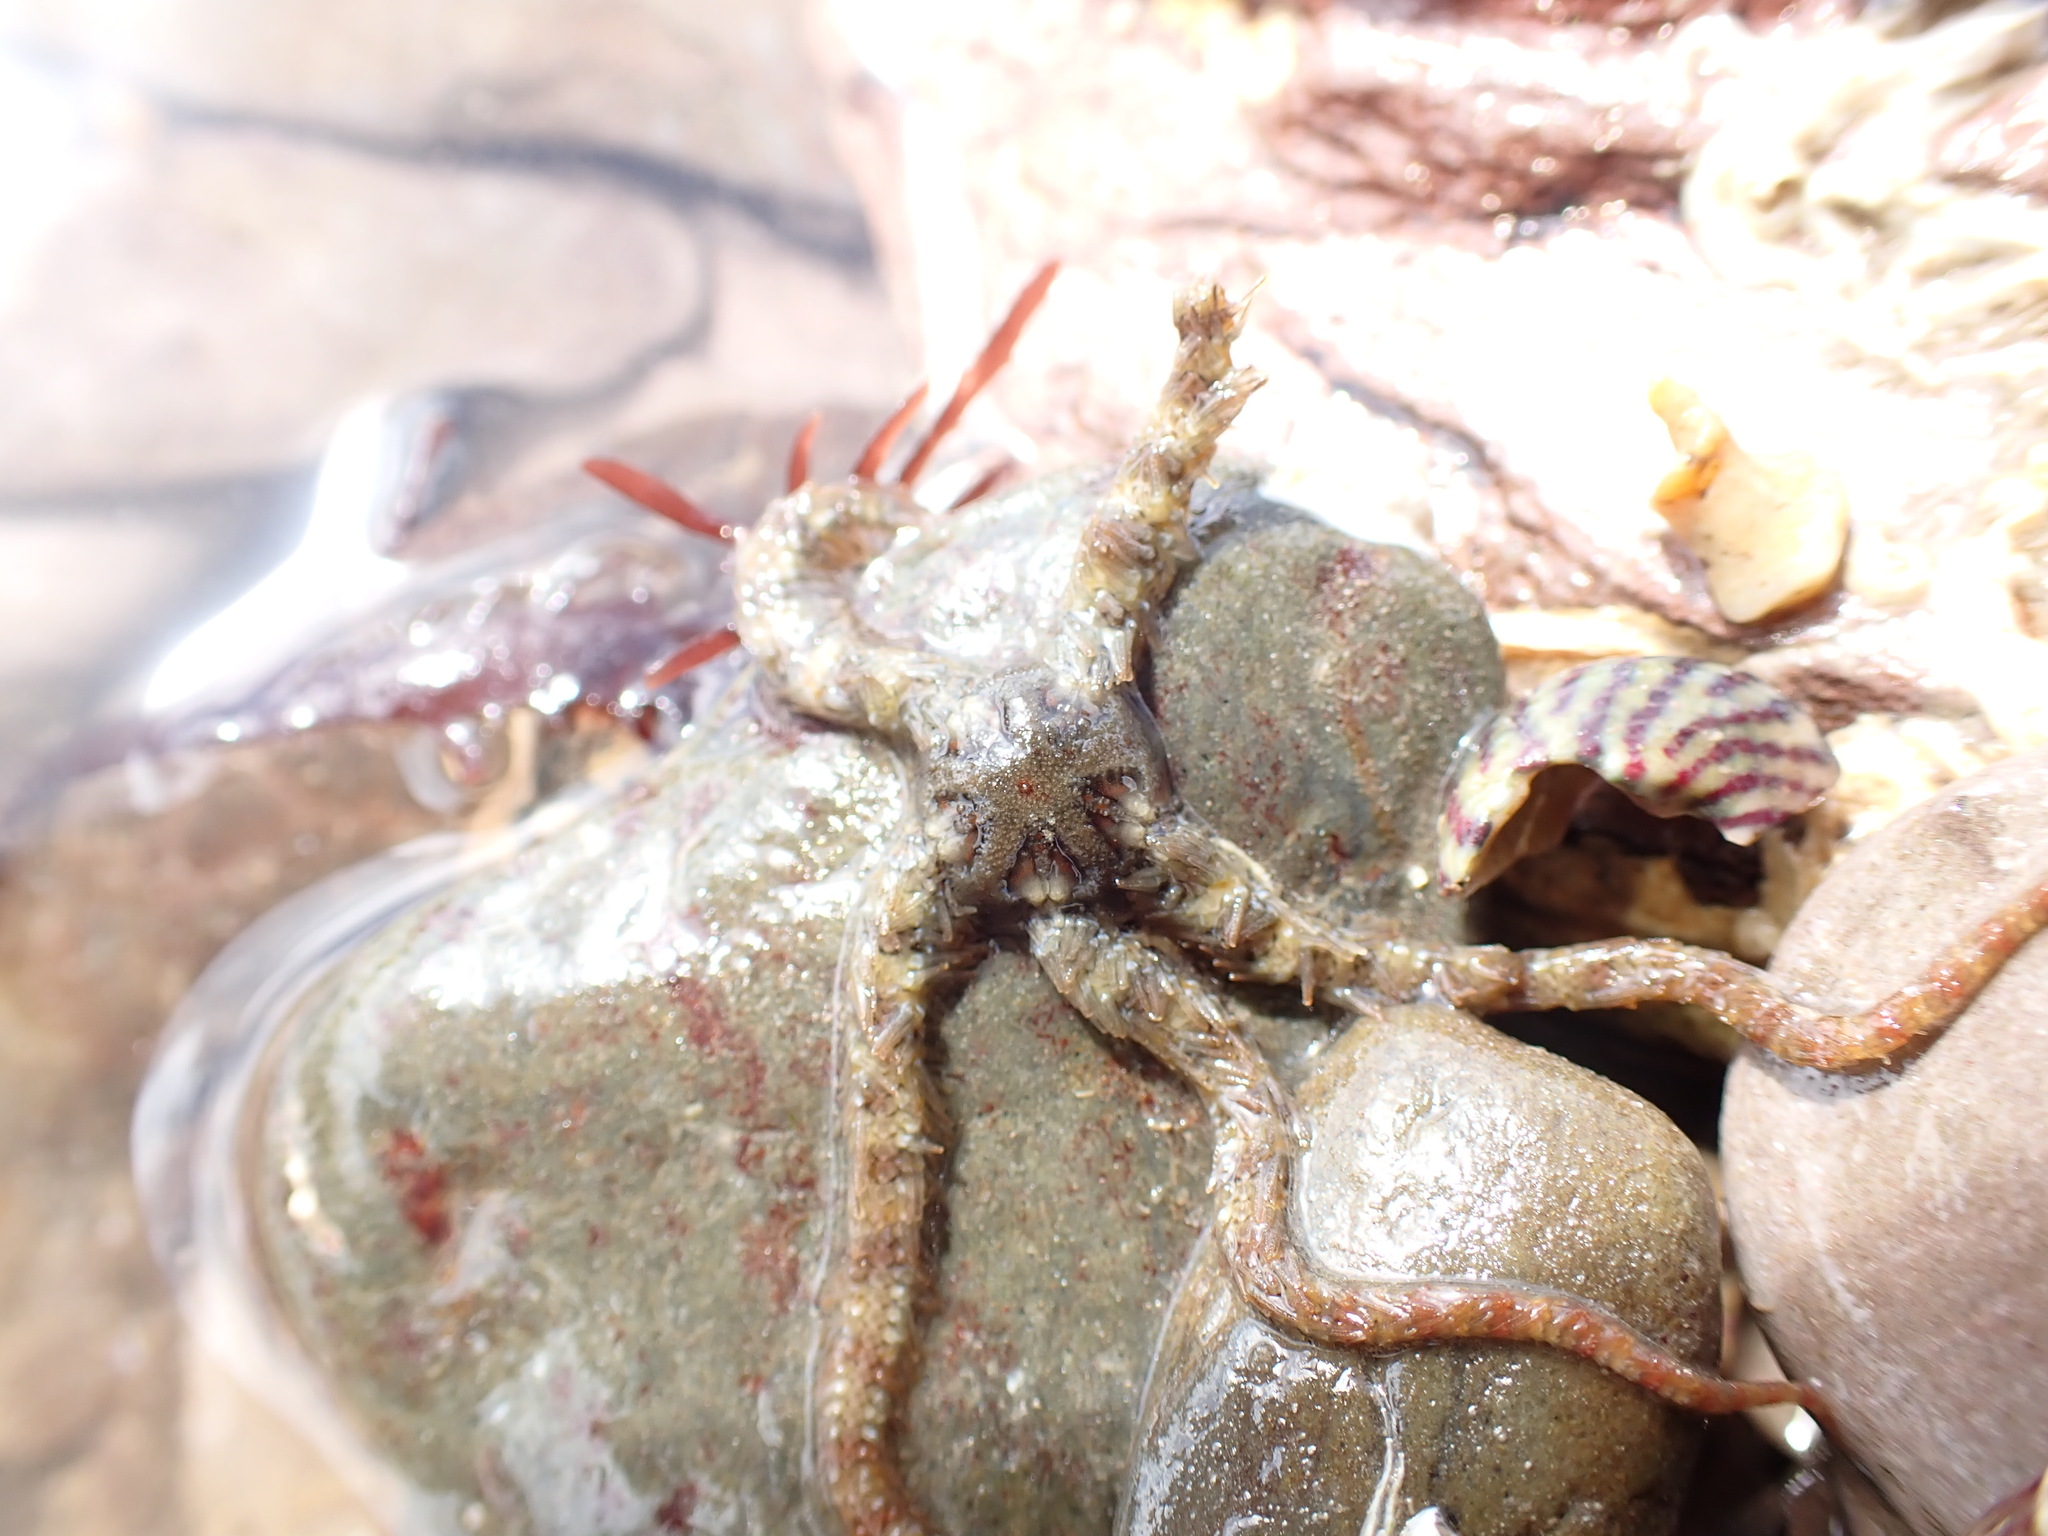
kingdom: Animalia
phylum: Echinodermata
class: Ophiuroidea
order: Amphilepidida
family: Ophiotrichidae
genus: Ophiothrix
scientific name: Ophiothrix fragilis
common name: Common brittlestar
